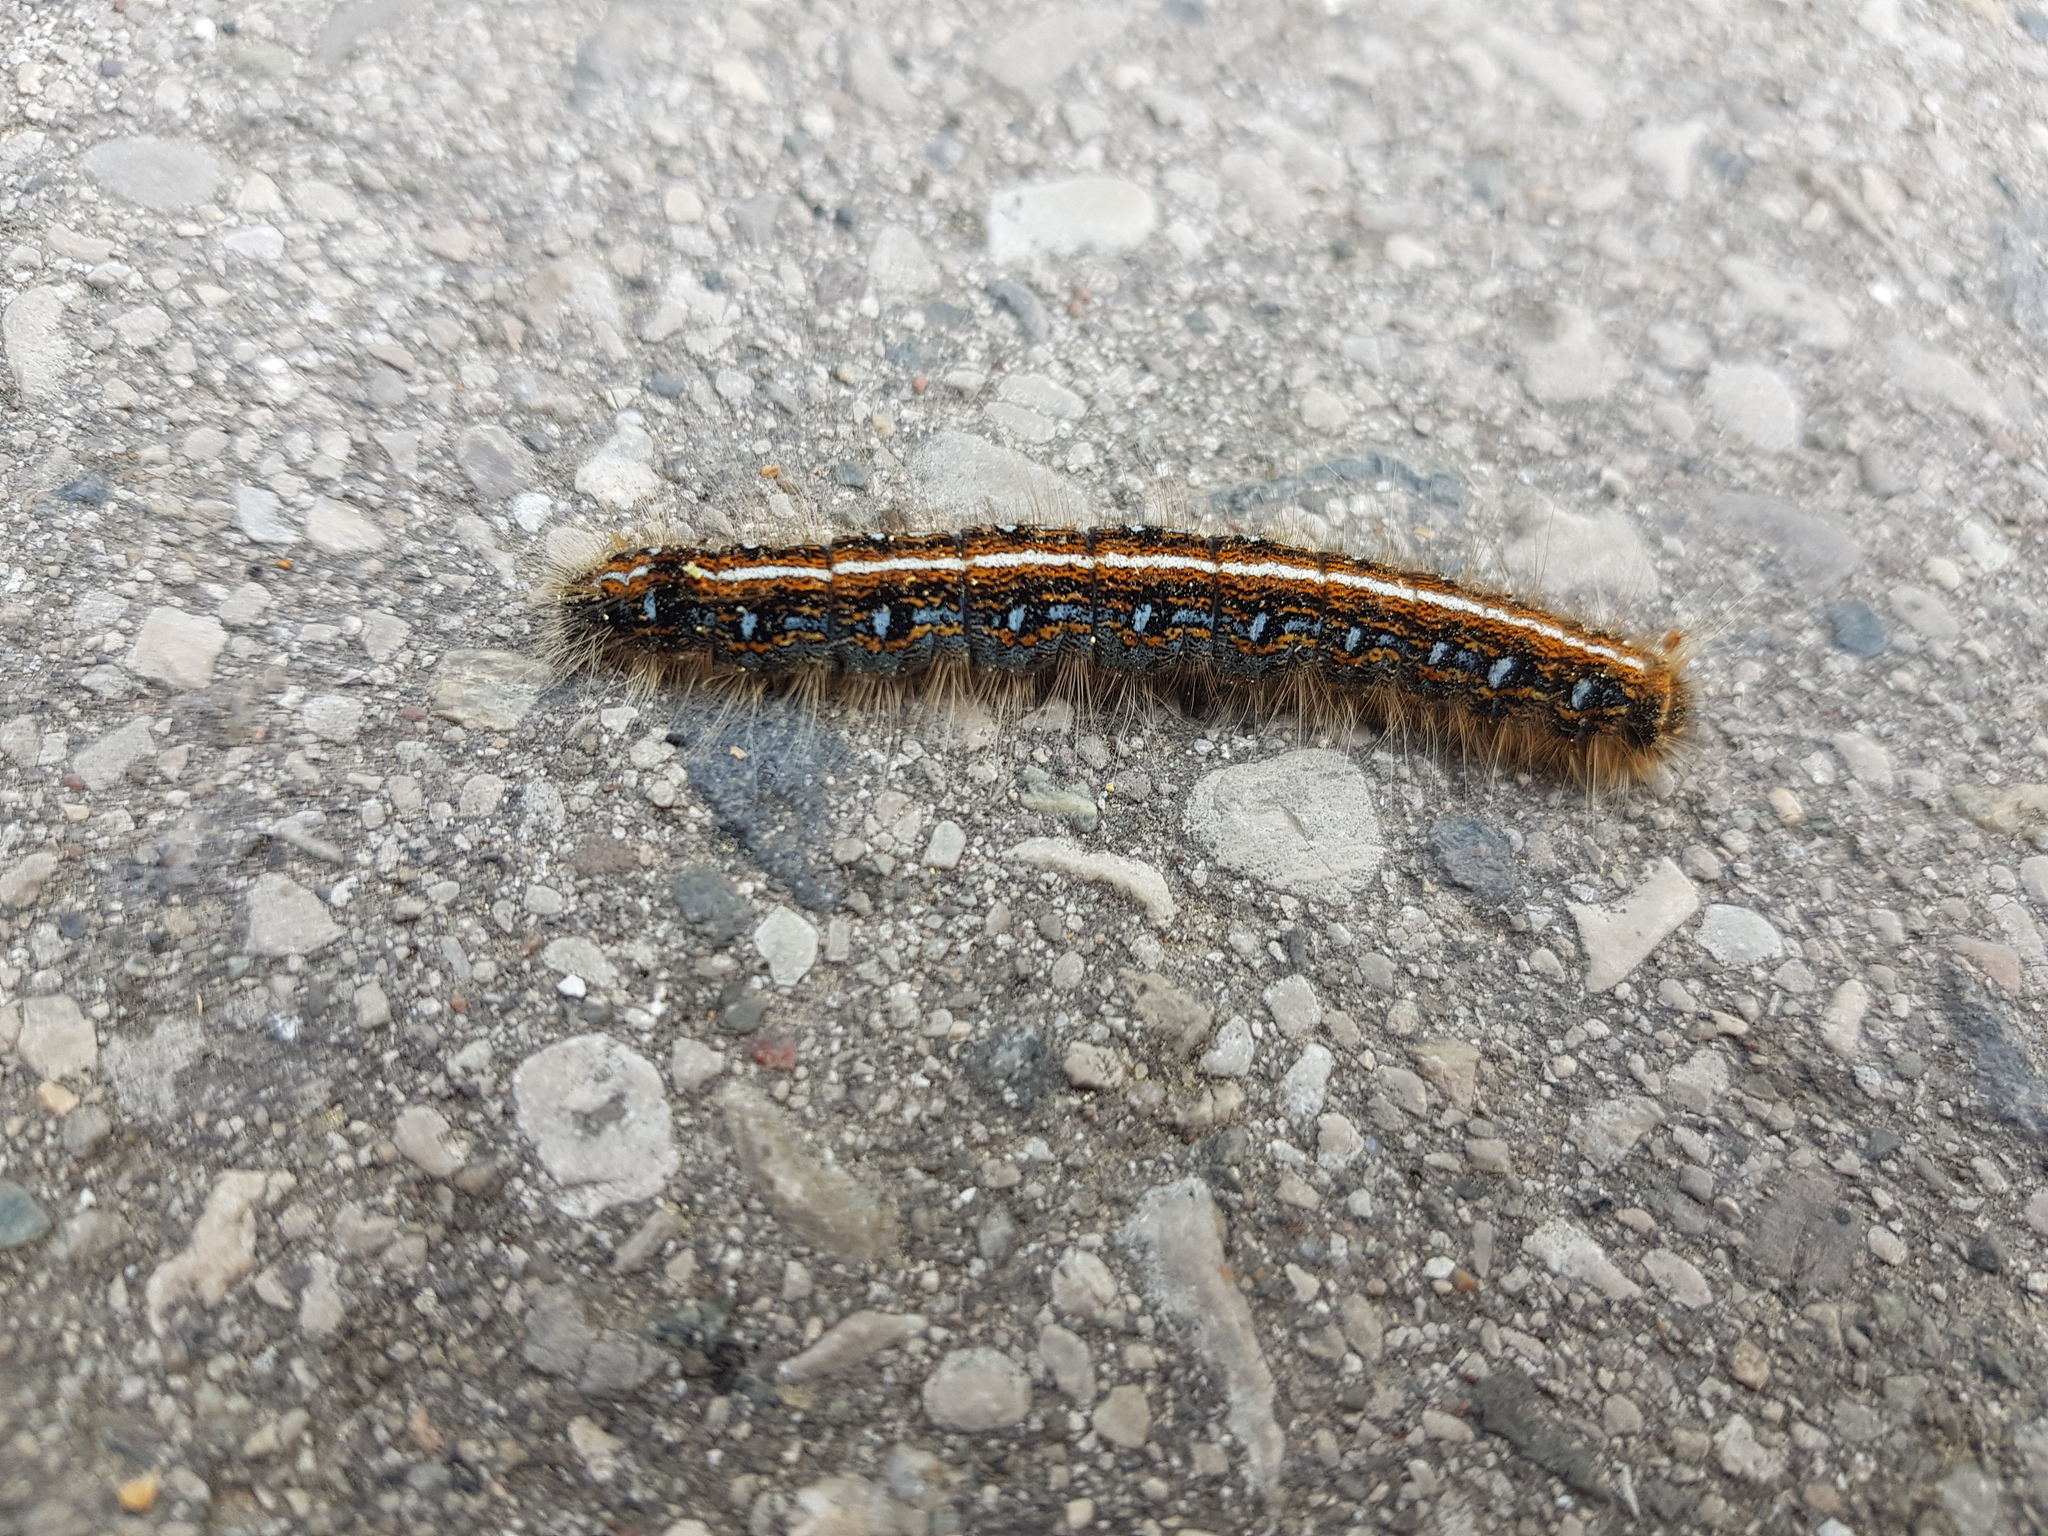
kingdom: Animalia
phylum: Arthropoda
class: Insecta
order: Lepidoptera
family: Lasiocampidae
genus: Malacosoma
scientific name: Malacosoma americana
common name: Eastern tent caterpillar moth
